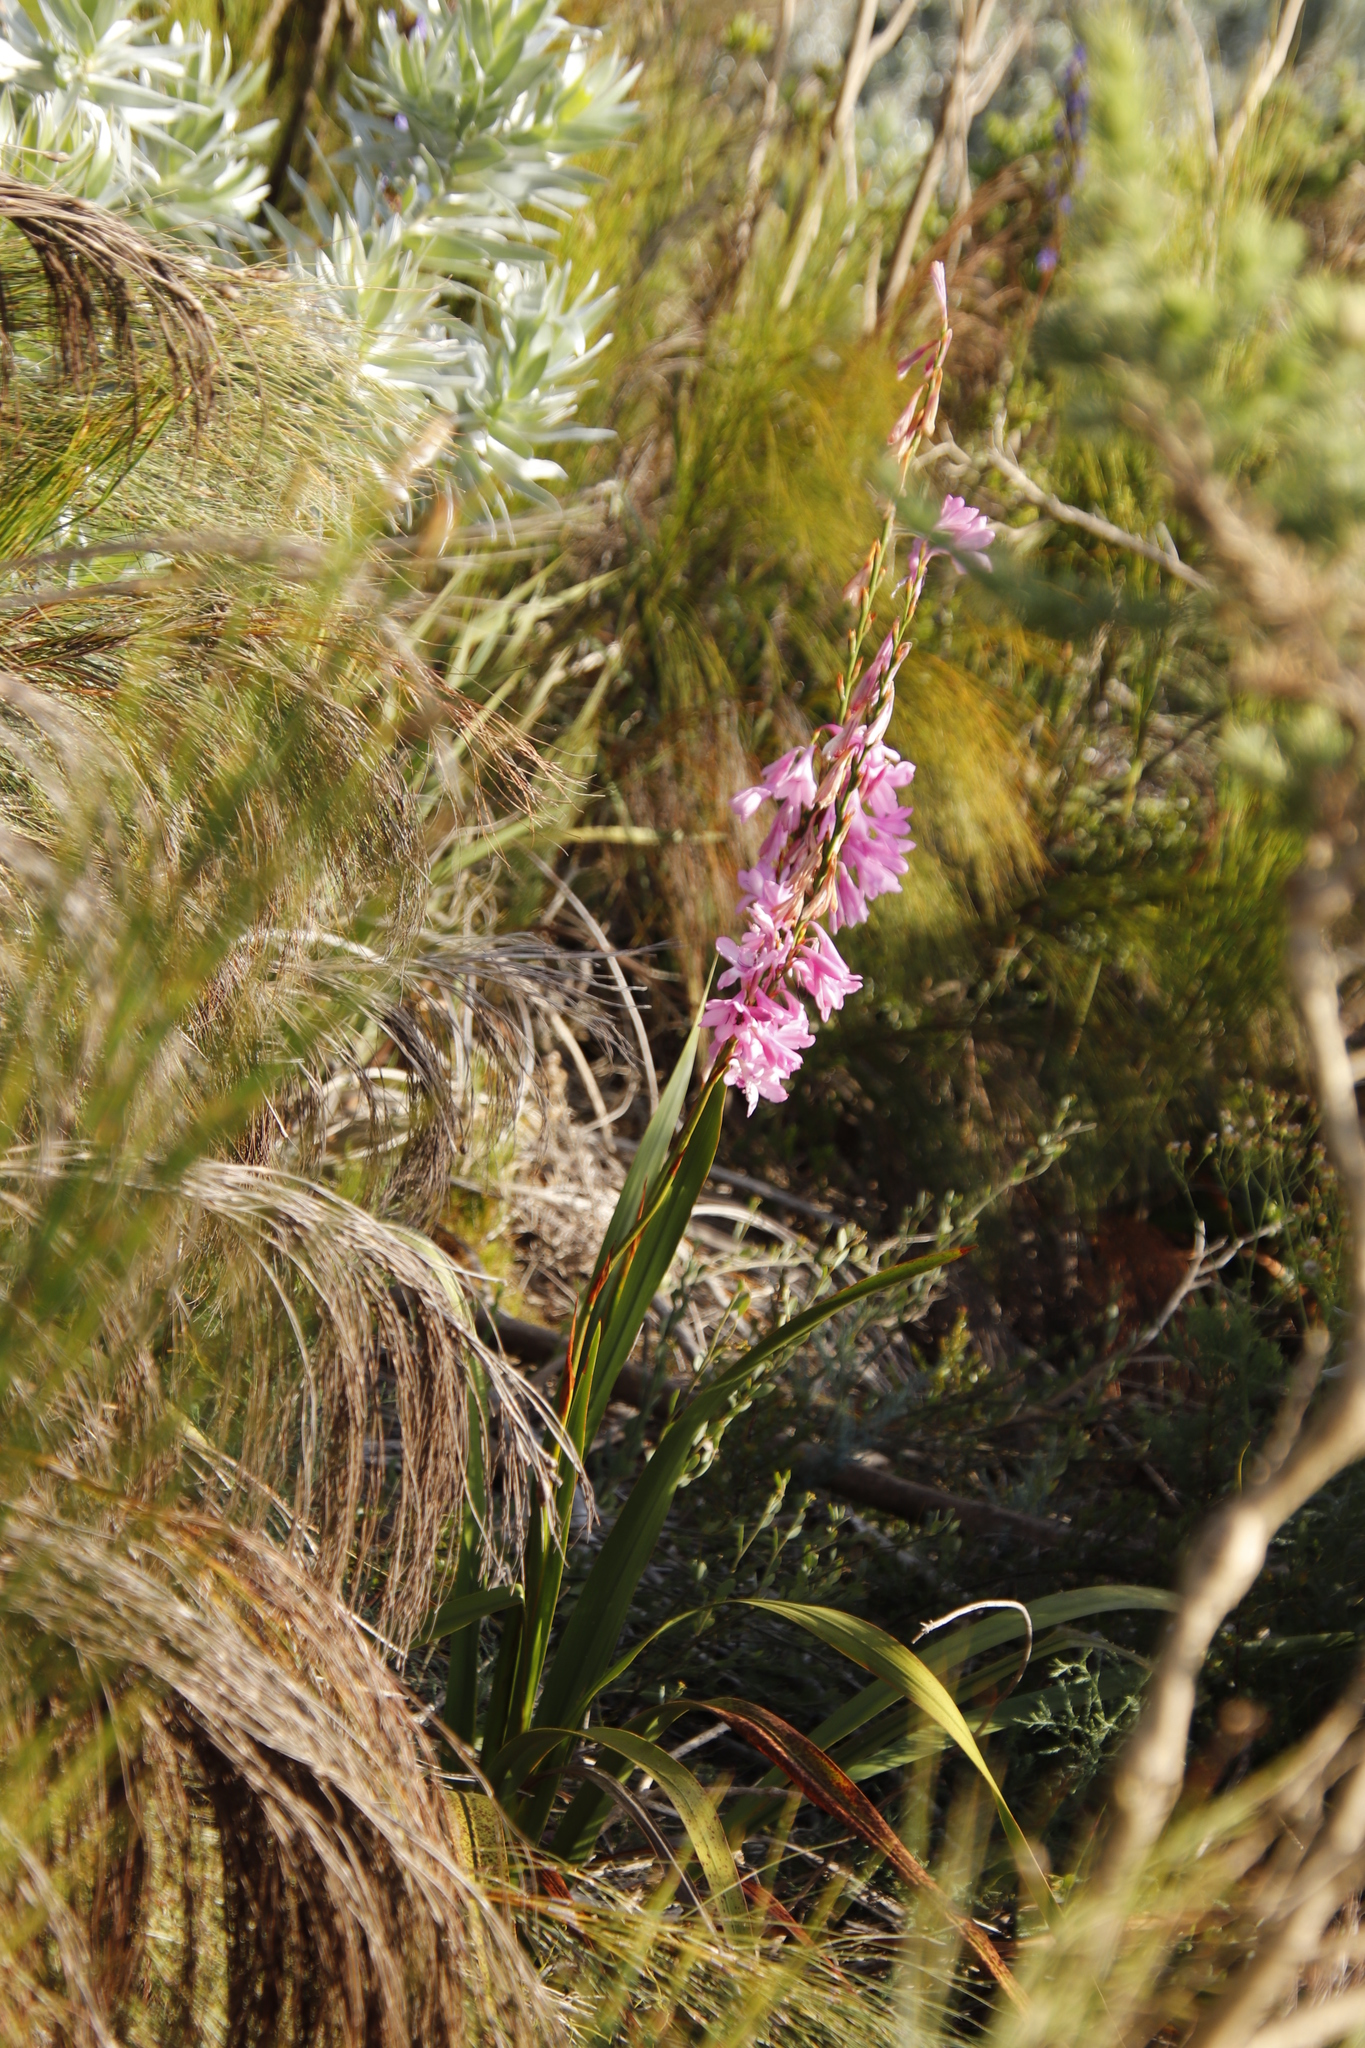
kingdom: Plantae
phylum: Tracheophyta
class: Liliopsida
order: Asparagales
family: Iridaceae
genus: Watsonia
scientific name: Watsonia borbonica
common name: Bugle-lily
